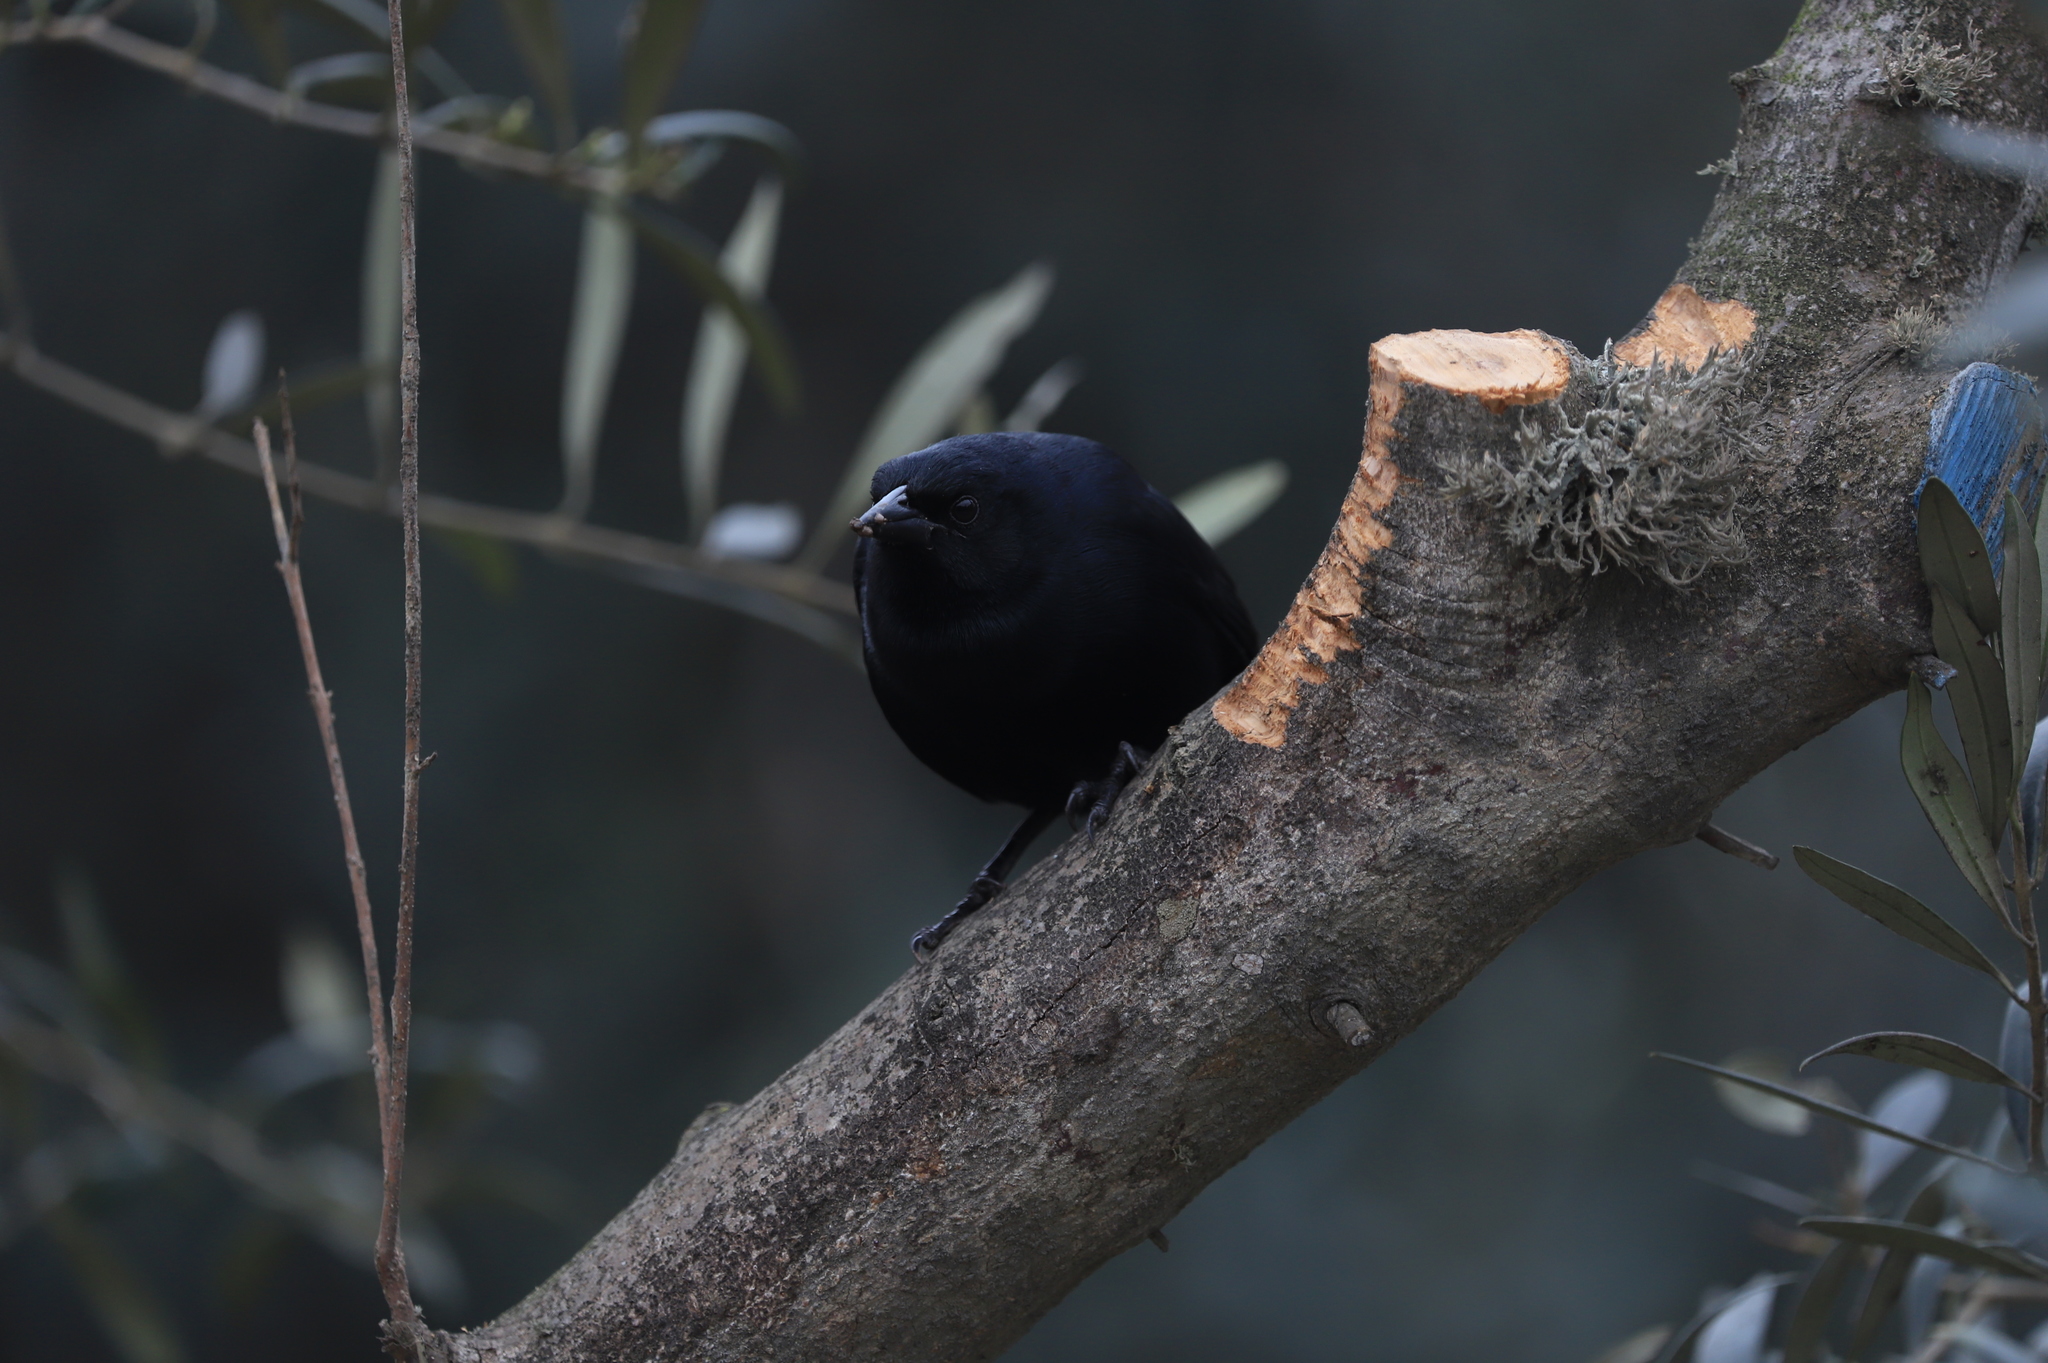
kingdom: Animalia
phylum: Chordata
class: Aves
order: Passeriformes
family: Icteridae
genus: Dives
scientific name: Dives warczewiczi
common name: Scrub blackbird
